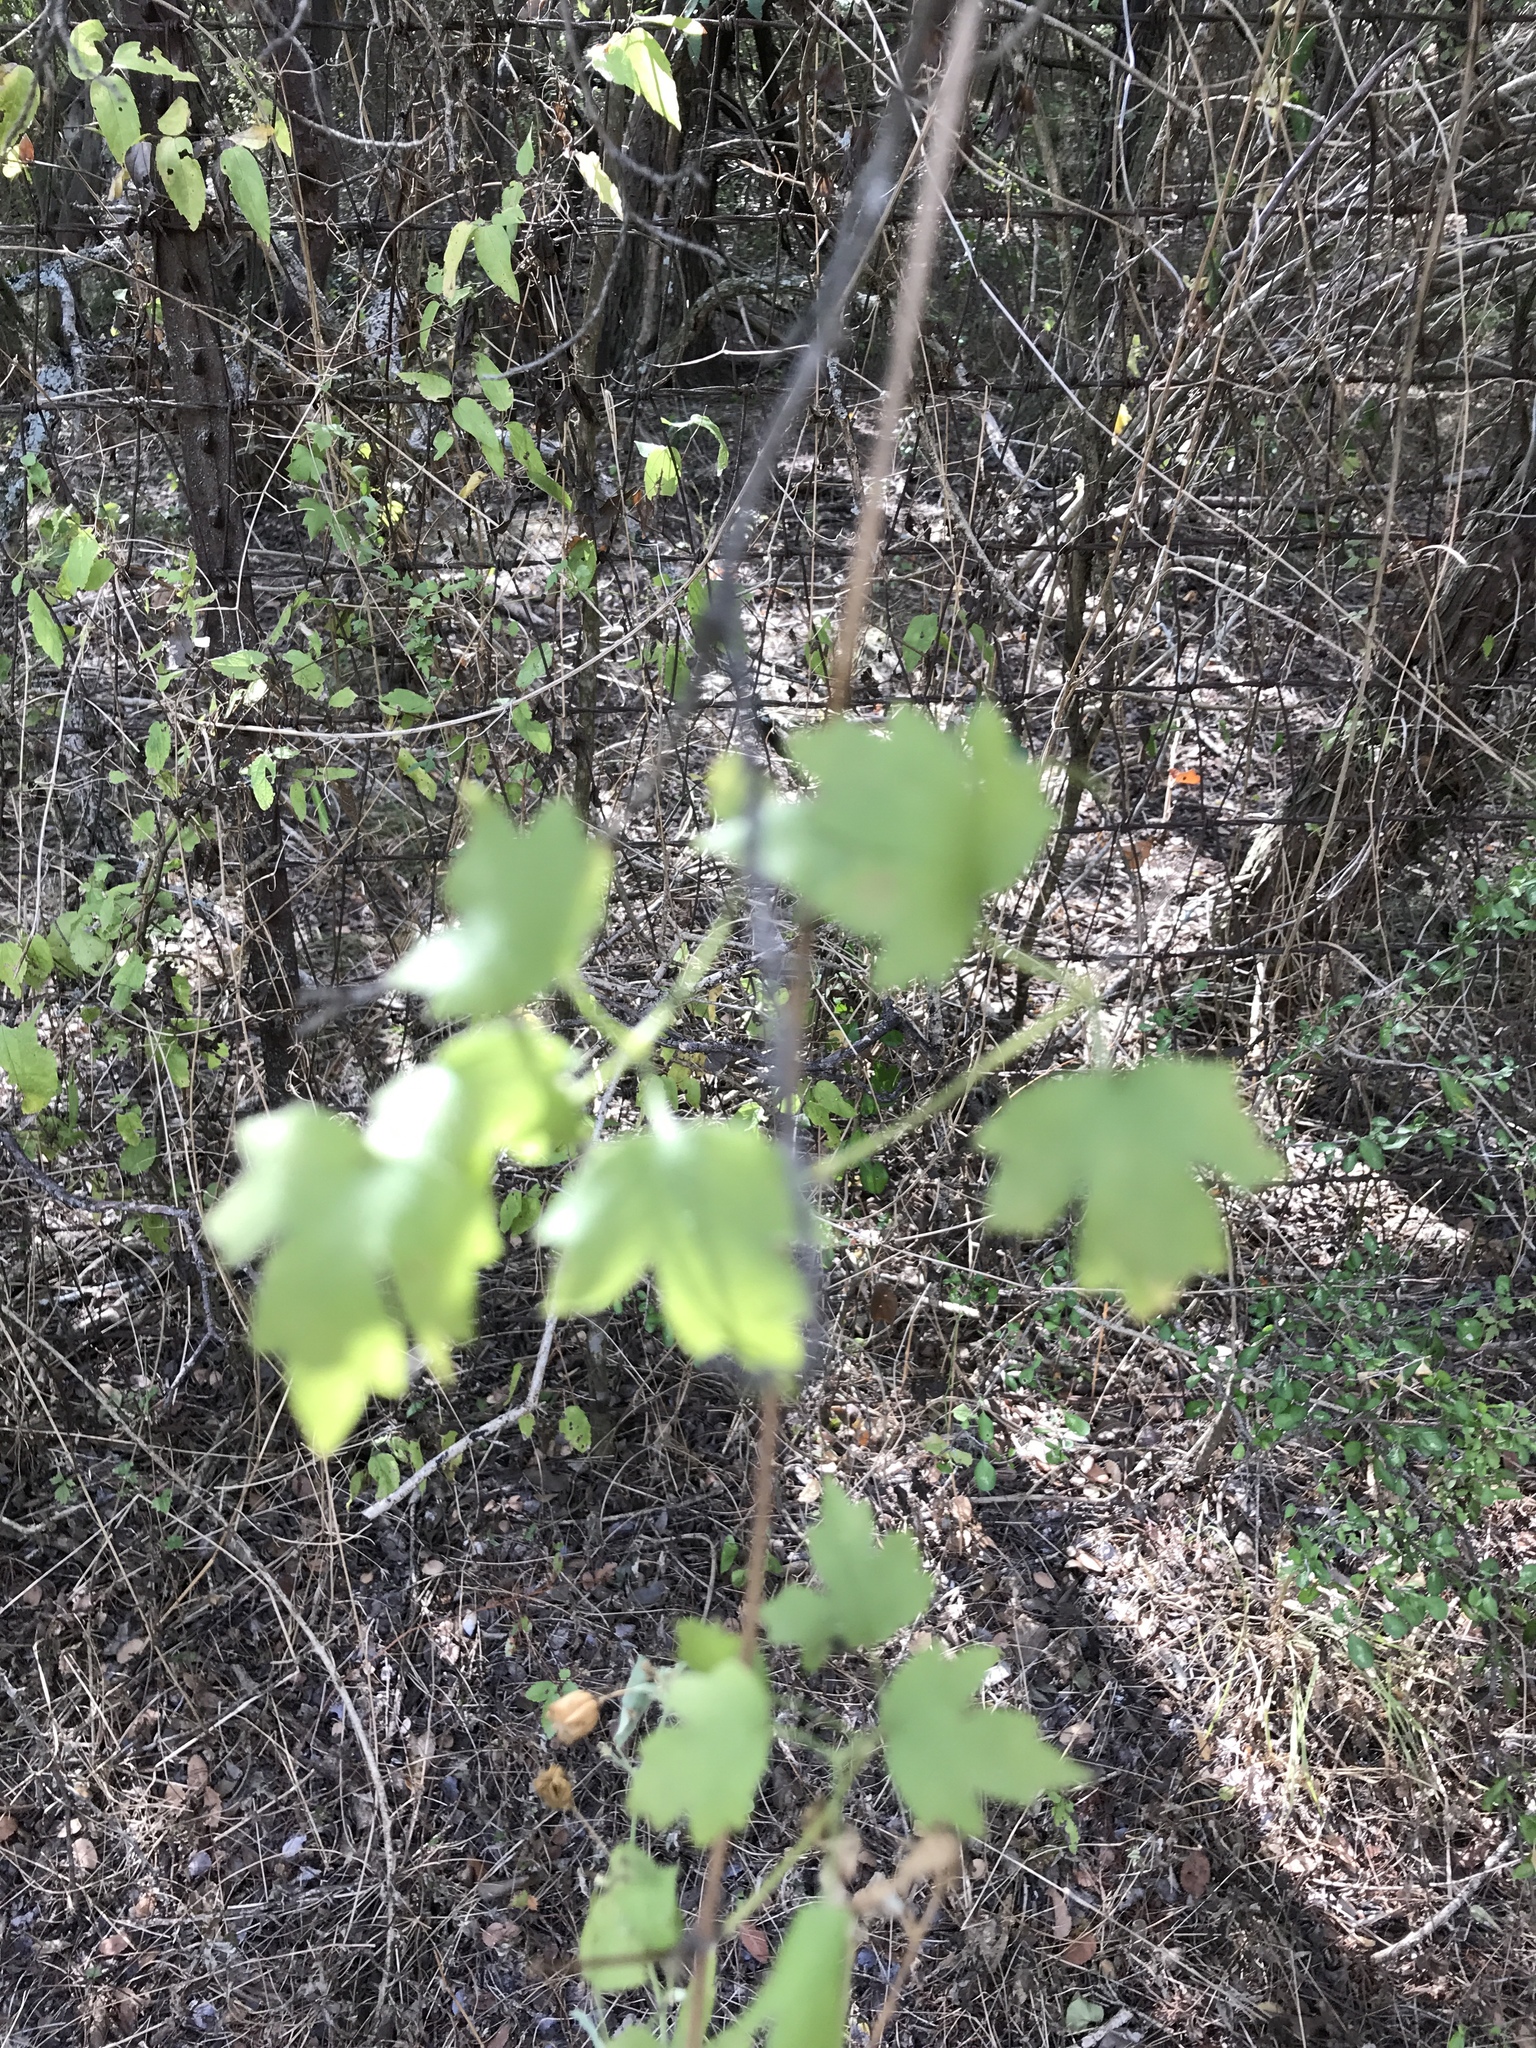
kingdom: Plantae
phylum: Tracheophyta
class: Magnoliopsida
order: Ranunculales
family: Ranunculaceae
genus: Clematis
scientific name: Clematis drummondii
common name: Texas virgin's bower
